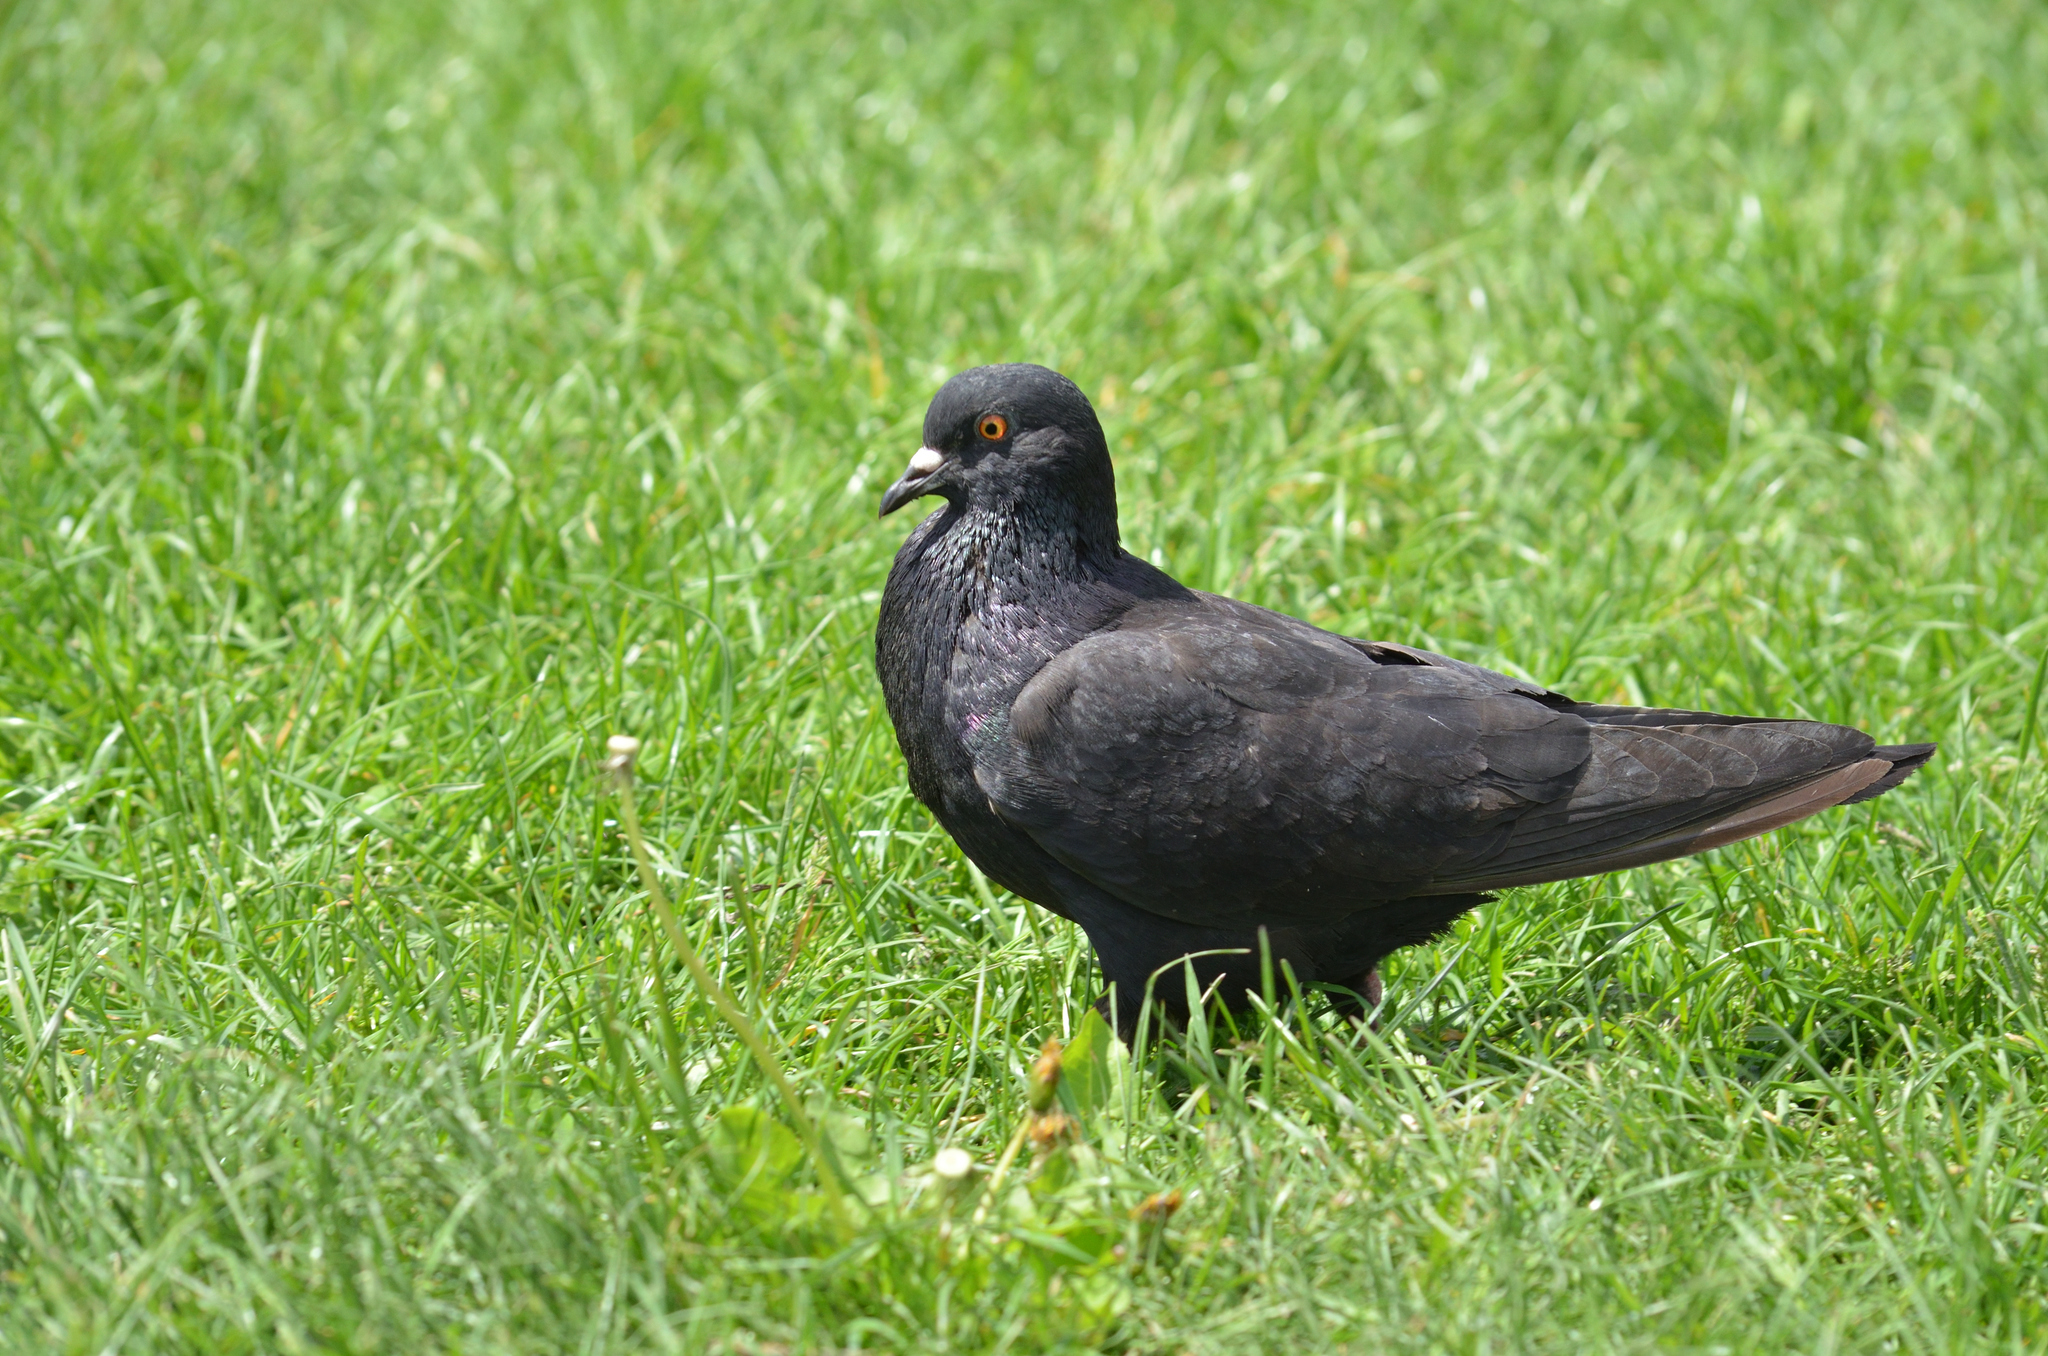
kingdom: Animalia
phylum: Chordata
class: Aves
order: Columbiformes
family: Columbidae
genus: Columba
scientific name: Columba livia
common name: Rock pigeon
